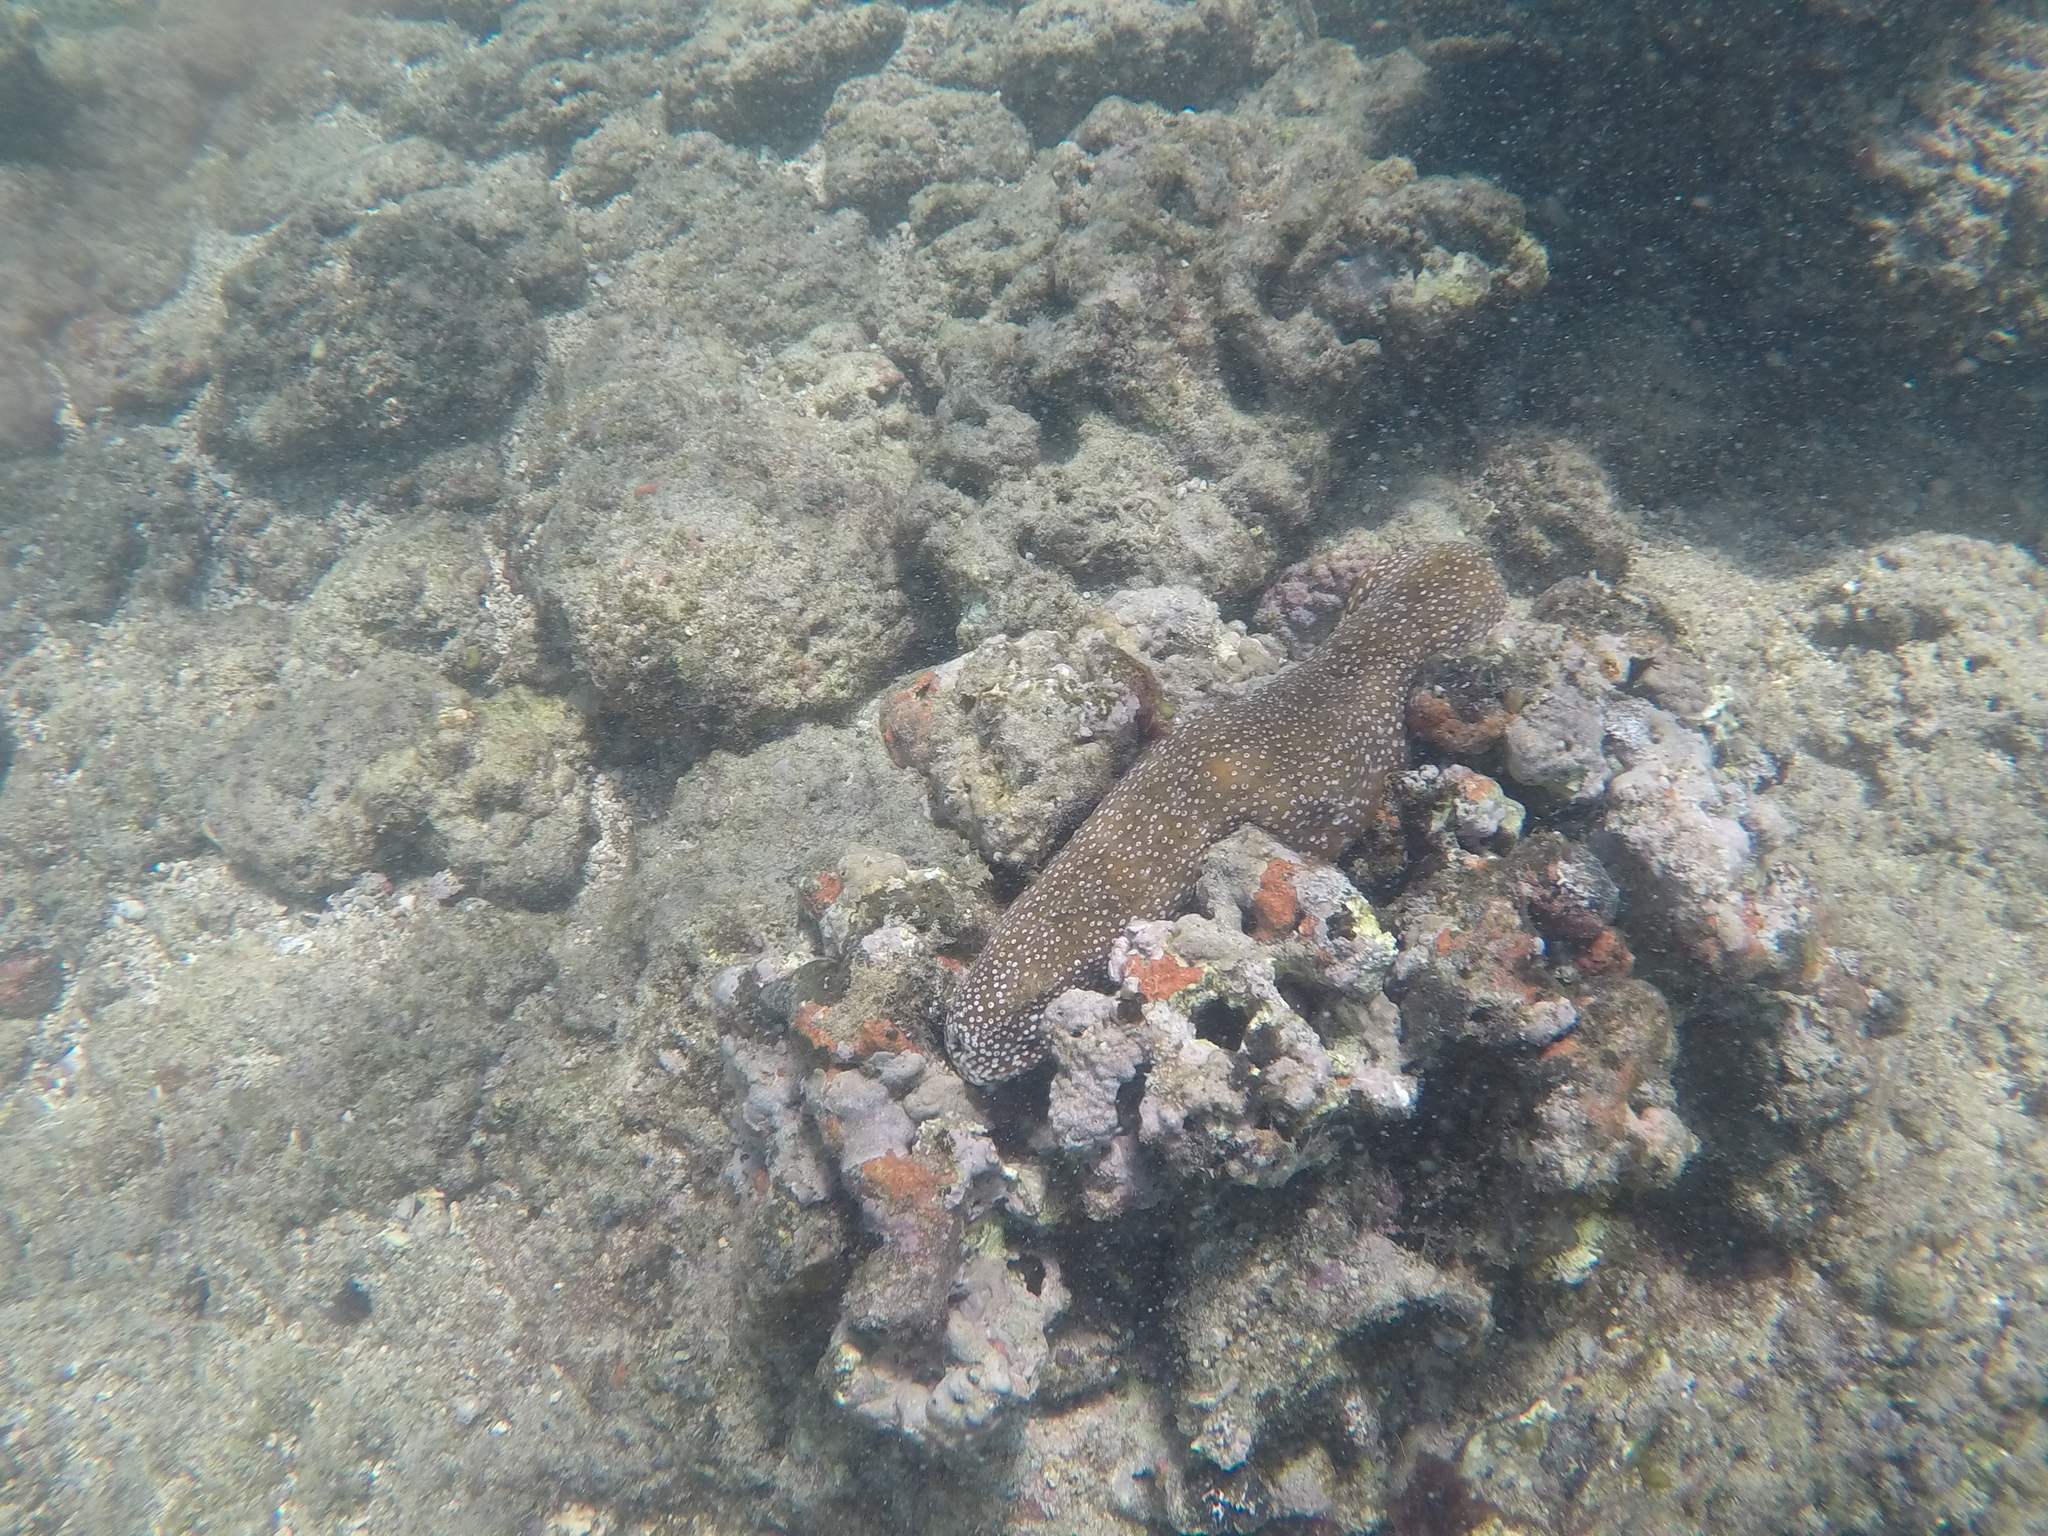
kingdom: Animalia
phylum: Echinodermata
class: Holothuroidea
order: Holothuriida
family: Holothuriidae
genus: Actinopyga
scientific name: Actinopyga varians
